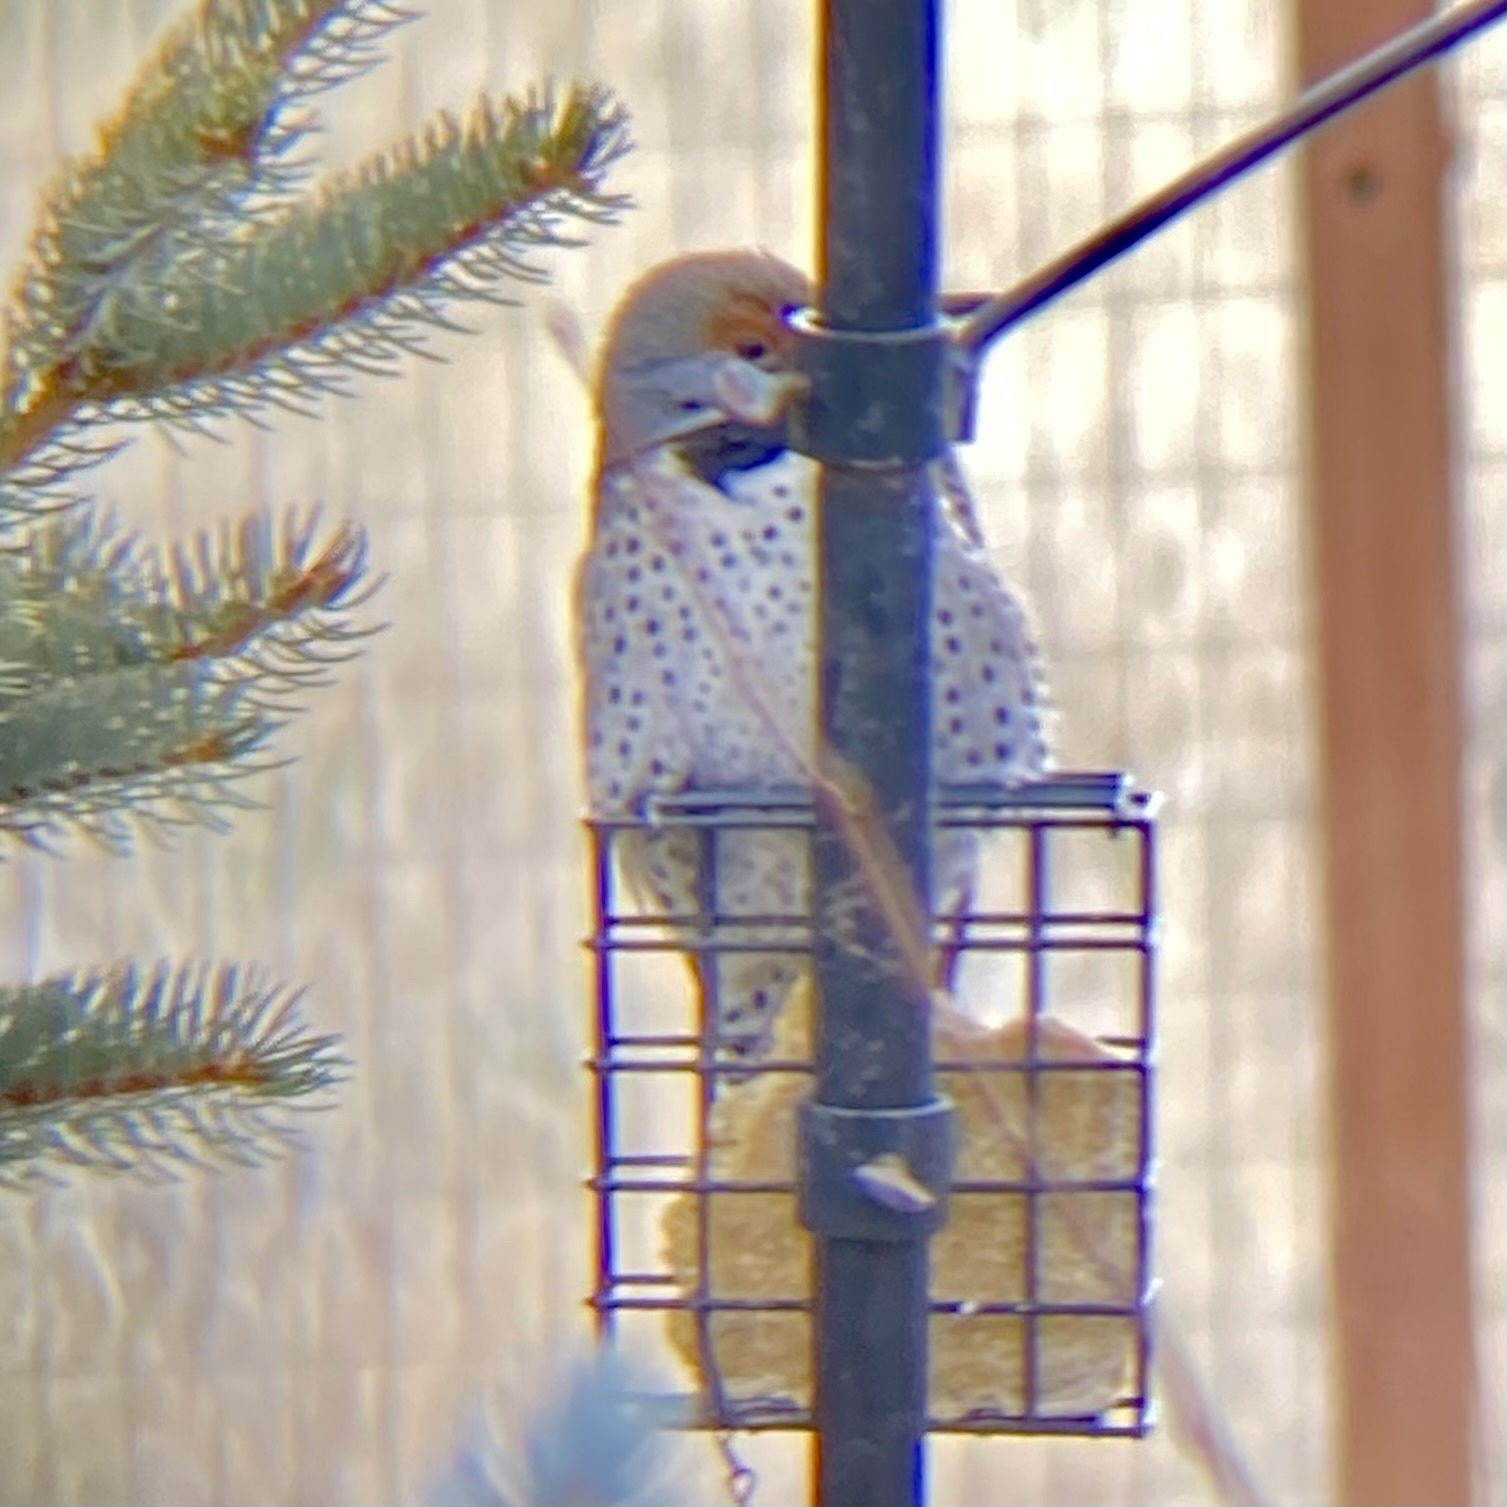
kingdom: Animalia
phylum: Chordata
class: Aves
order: Piciformes
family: Picidae
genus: Colaptes
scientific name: Colaptes auratus
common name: Northern flicker
